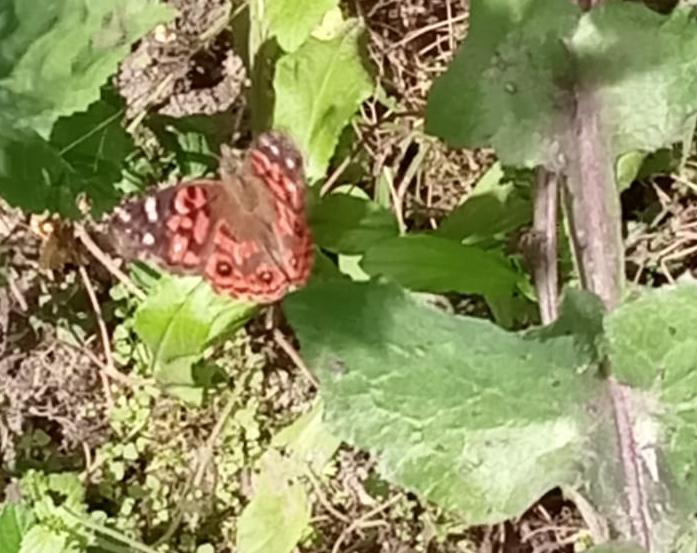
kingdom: Animalia
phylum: Arthropoda
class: Insecta
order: Lepidoptera
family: Nymphalidae
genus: Vanessa
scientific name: Vanessa braziliensis
